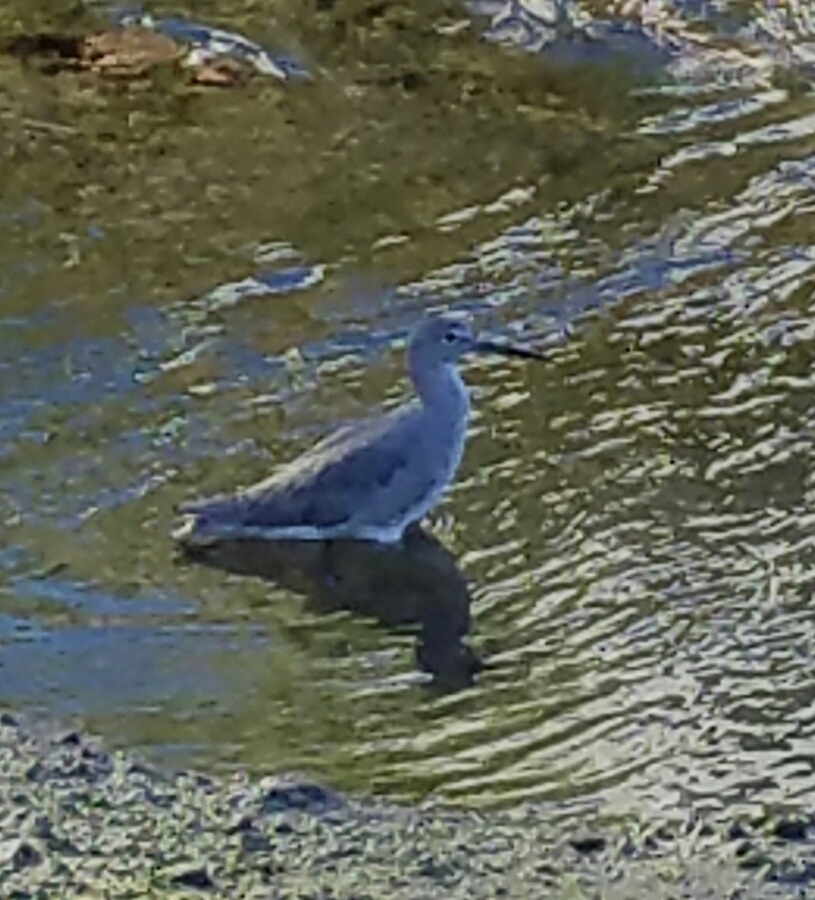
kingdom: Animalia
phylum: Chordata
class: Aves
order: Charadriiformes
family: Scolopacidae
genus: Tringa
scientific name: Tringa semipalmata
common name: Willet
